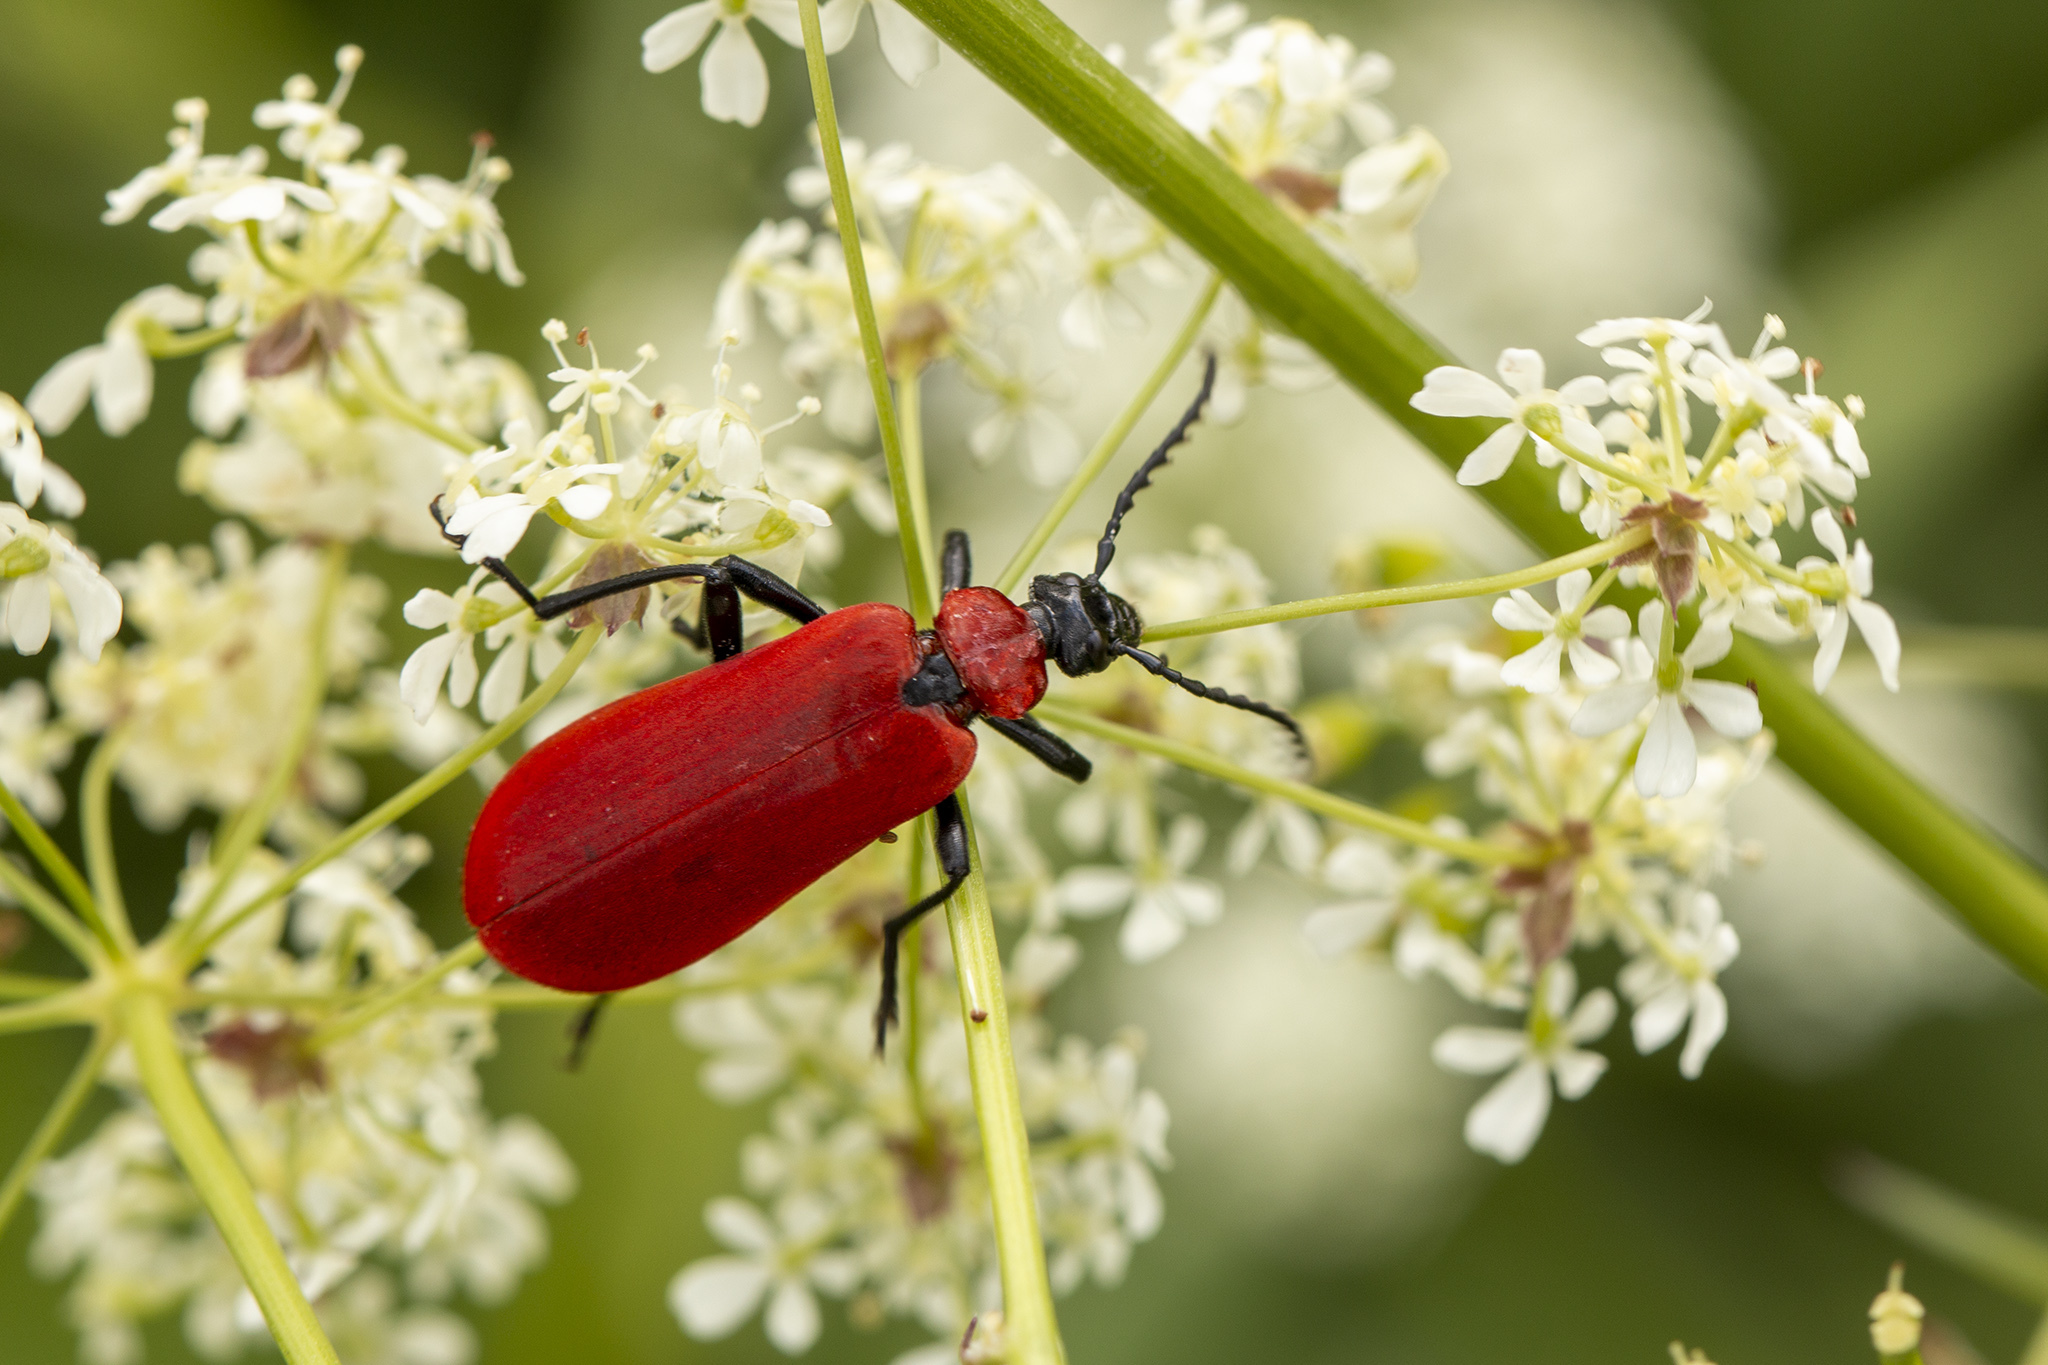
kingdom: Animalia
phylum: Arthropoda
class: Insecta
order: Coleoptera
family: Pyrochroidae
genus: Pyrochroa
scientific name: Pyrochroa coccinea
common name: Black-headed cardinal beetle
